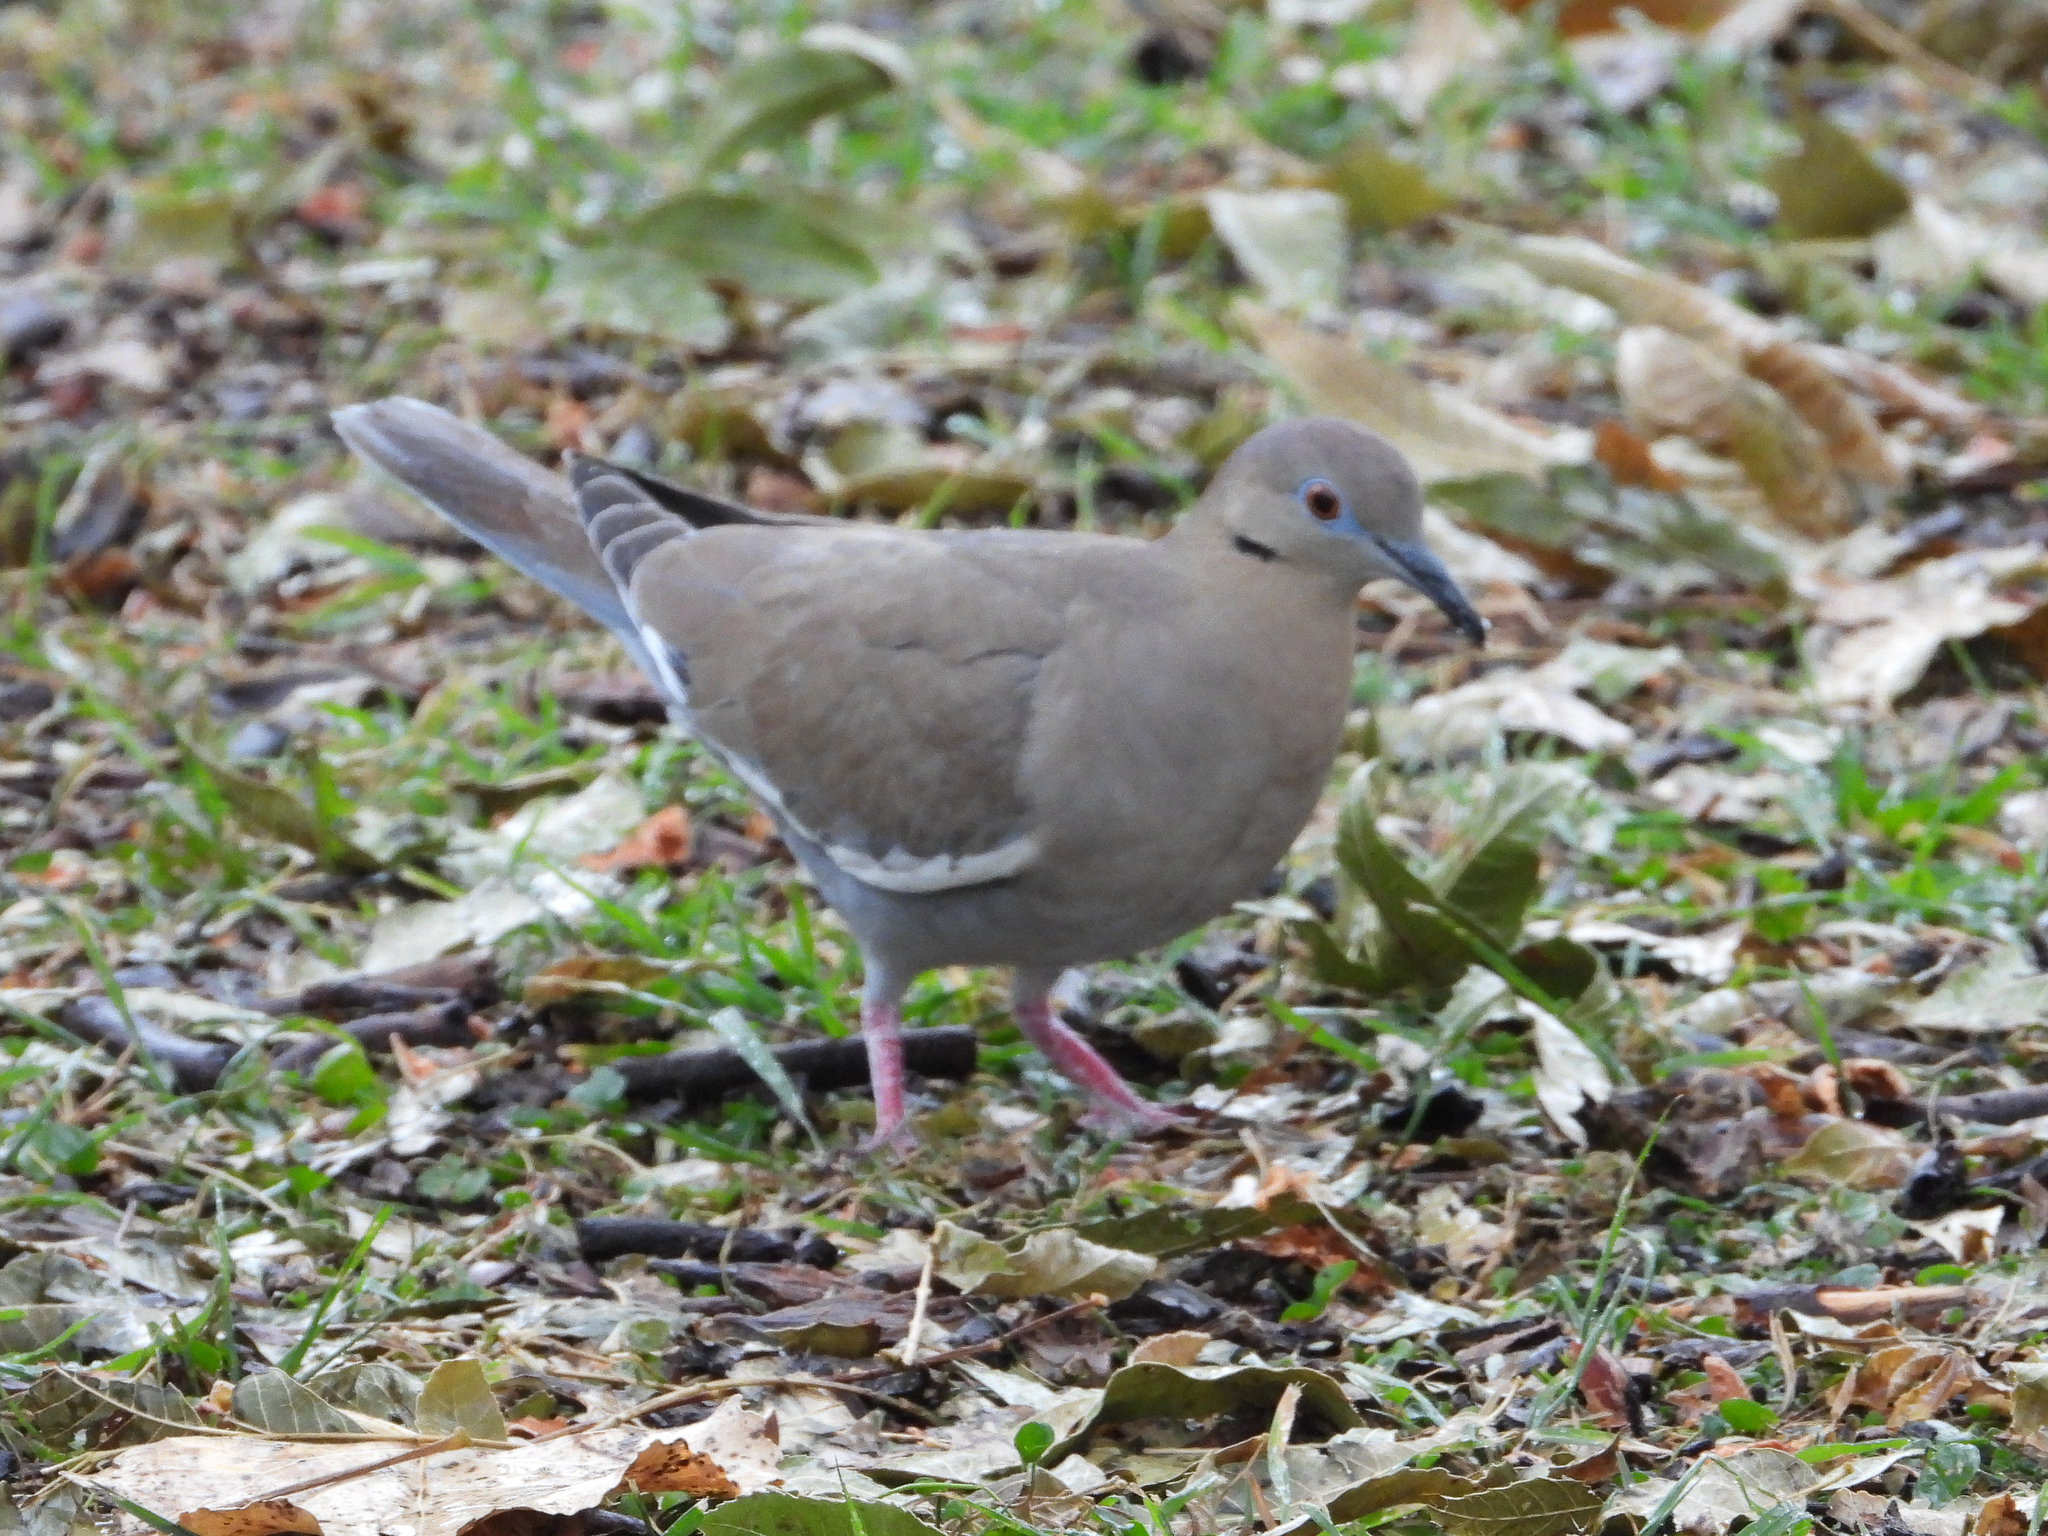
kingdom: Animalia
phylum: Chordata
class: Aves
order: Columbiformes
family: Columbidae
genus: Zenaida
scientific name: Zenaida asiatica
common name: White-winged dove
